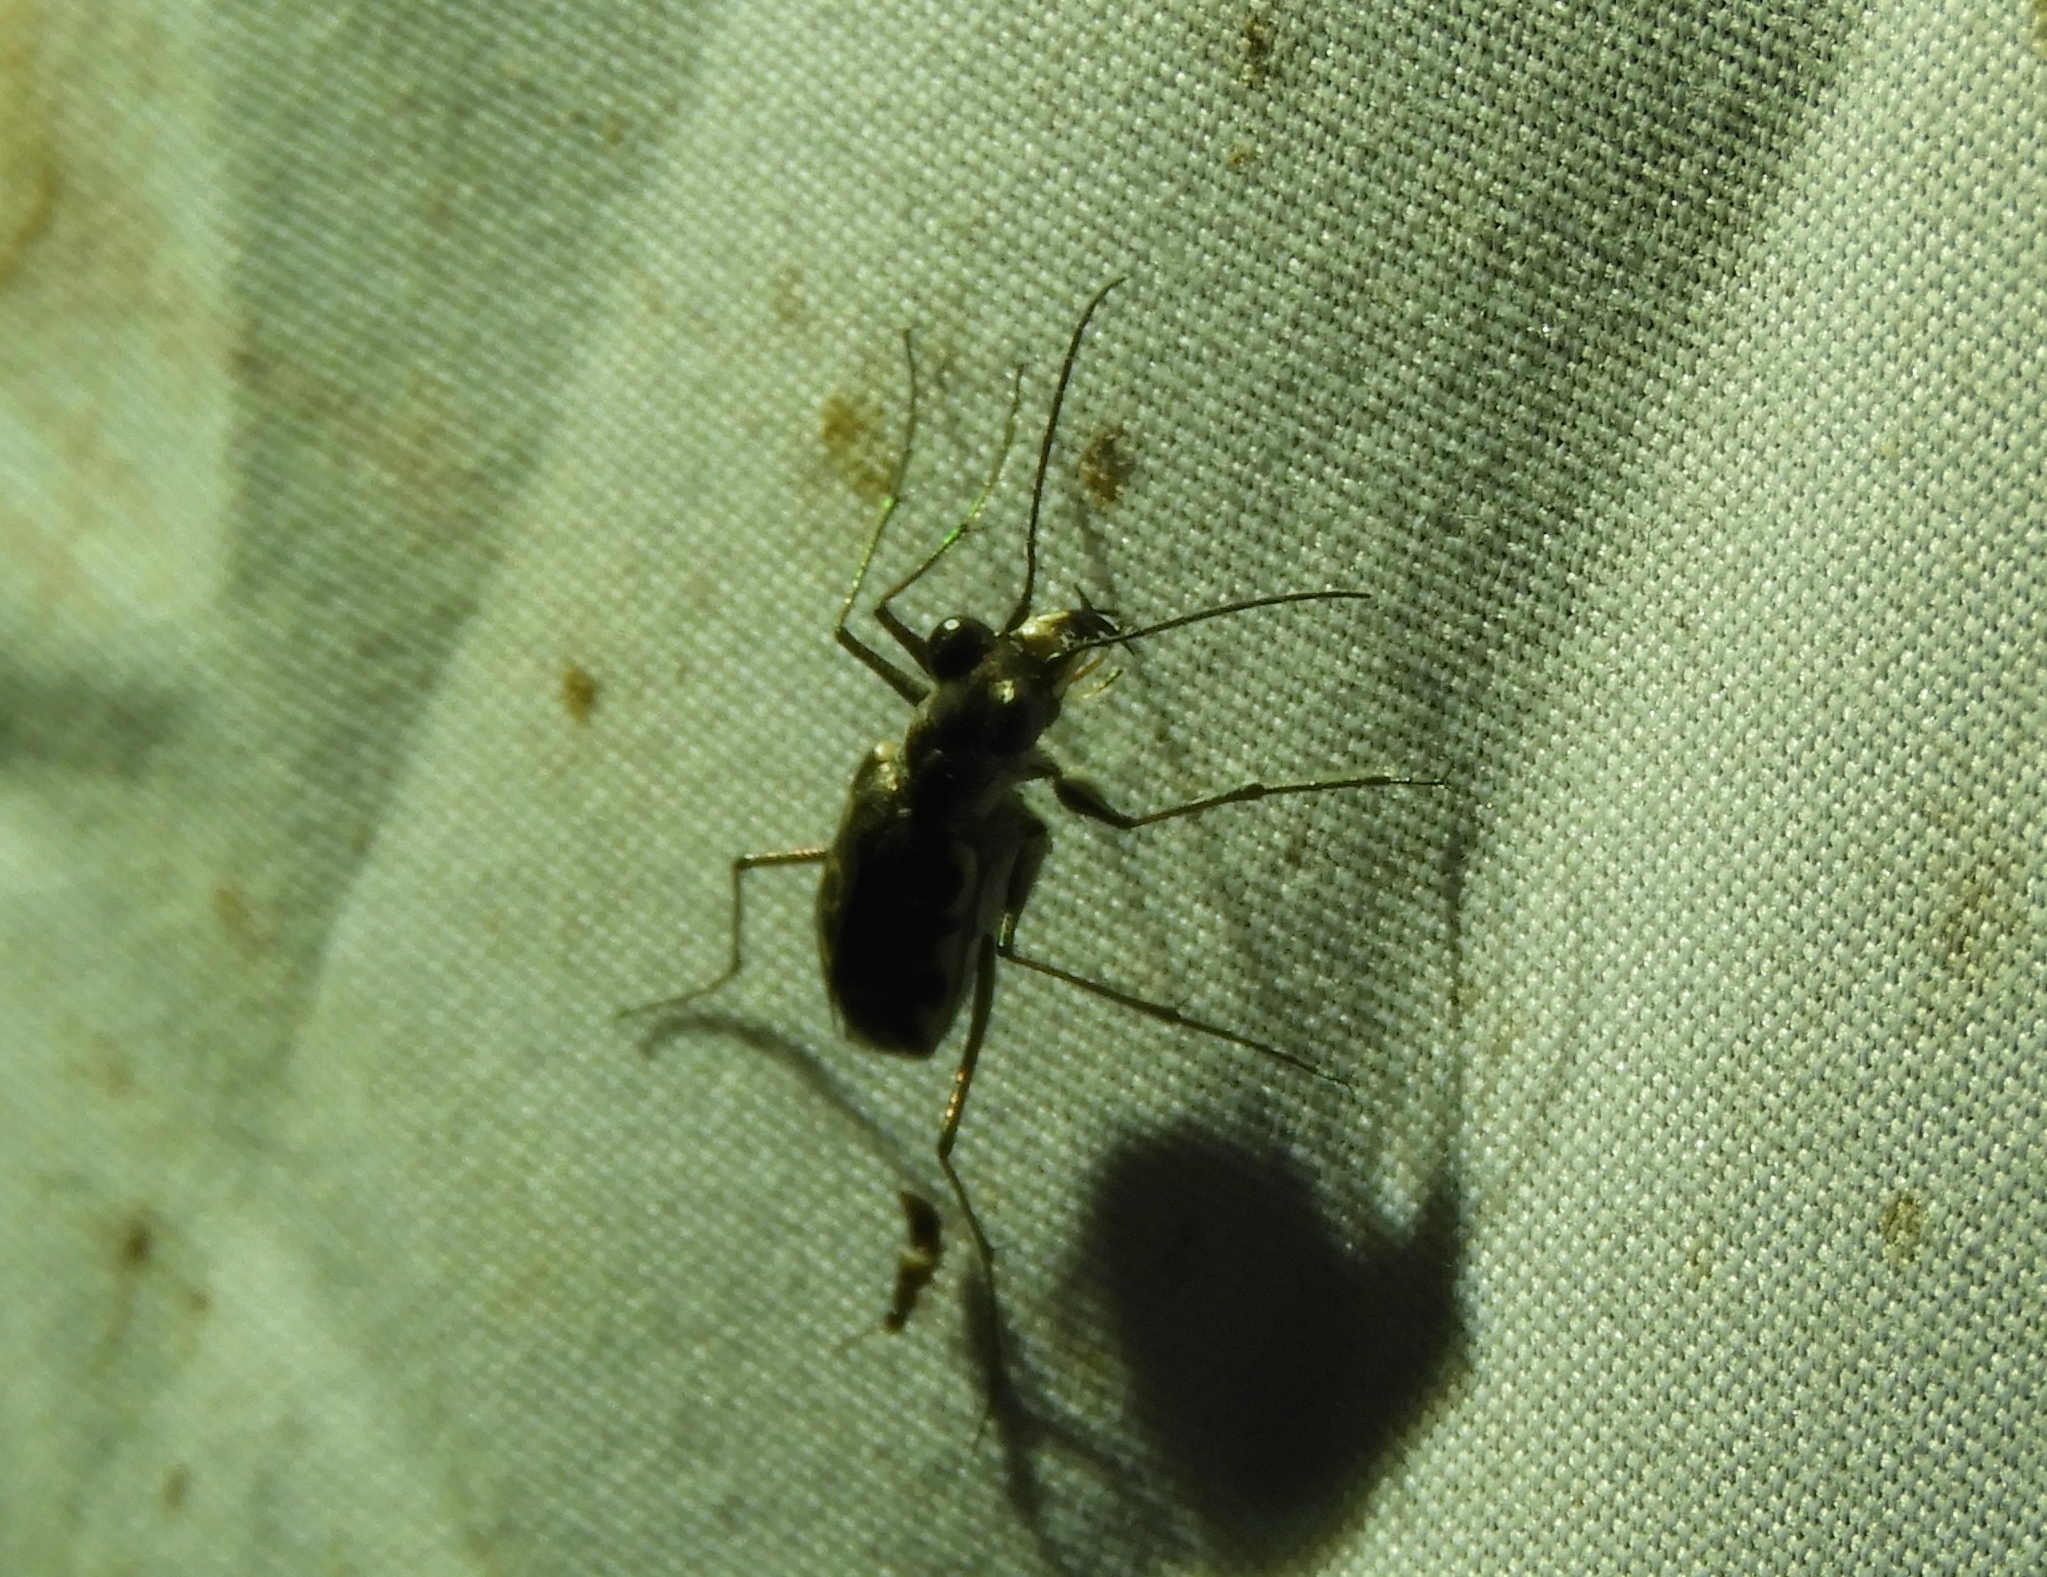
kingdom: Animalia
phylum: Arthropoda
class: Insecta
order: Coleoptera
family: Carabidae
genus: Cicindela
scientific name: Cicindela trifasciata
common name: Mudflat tiger beetle
